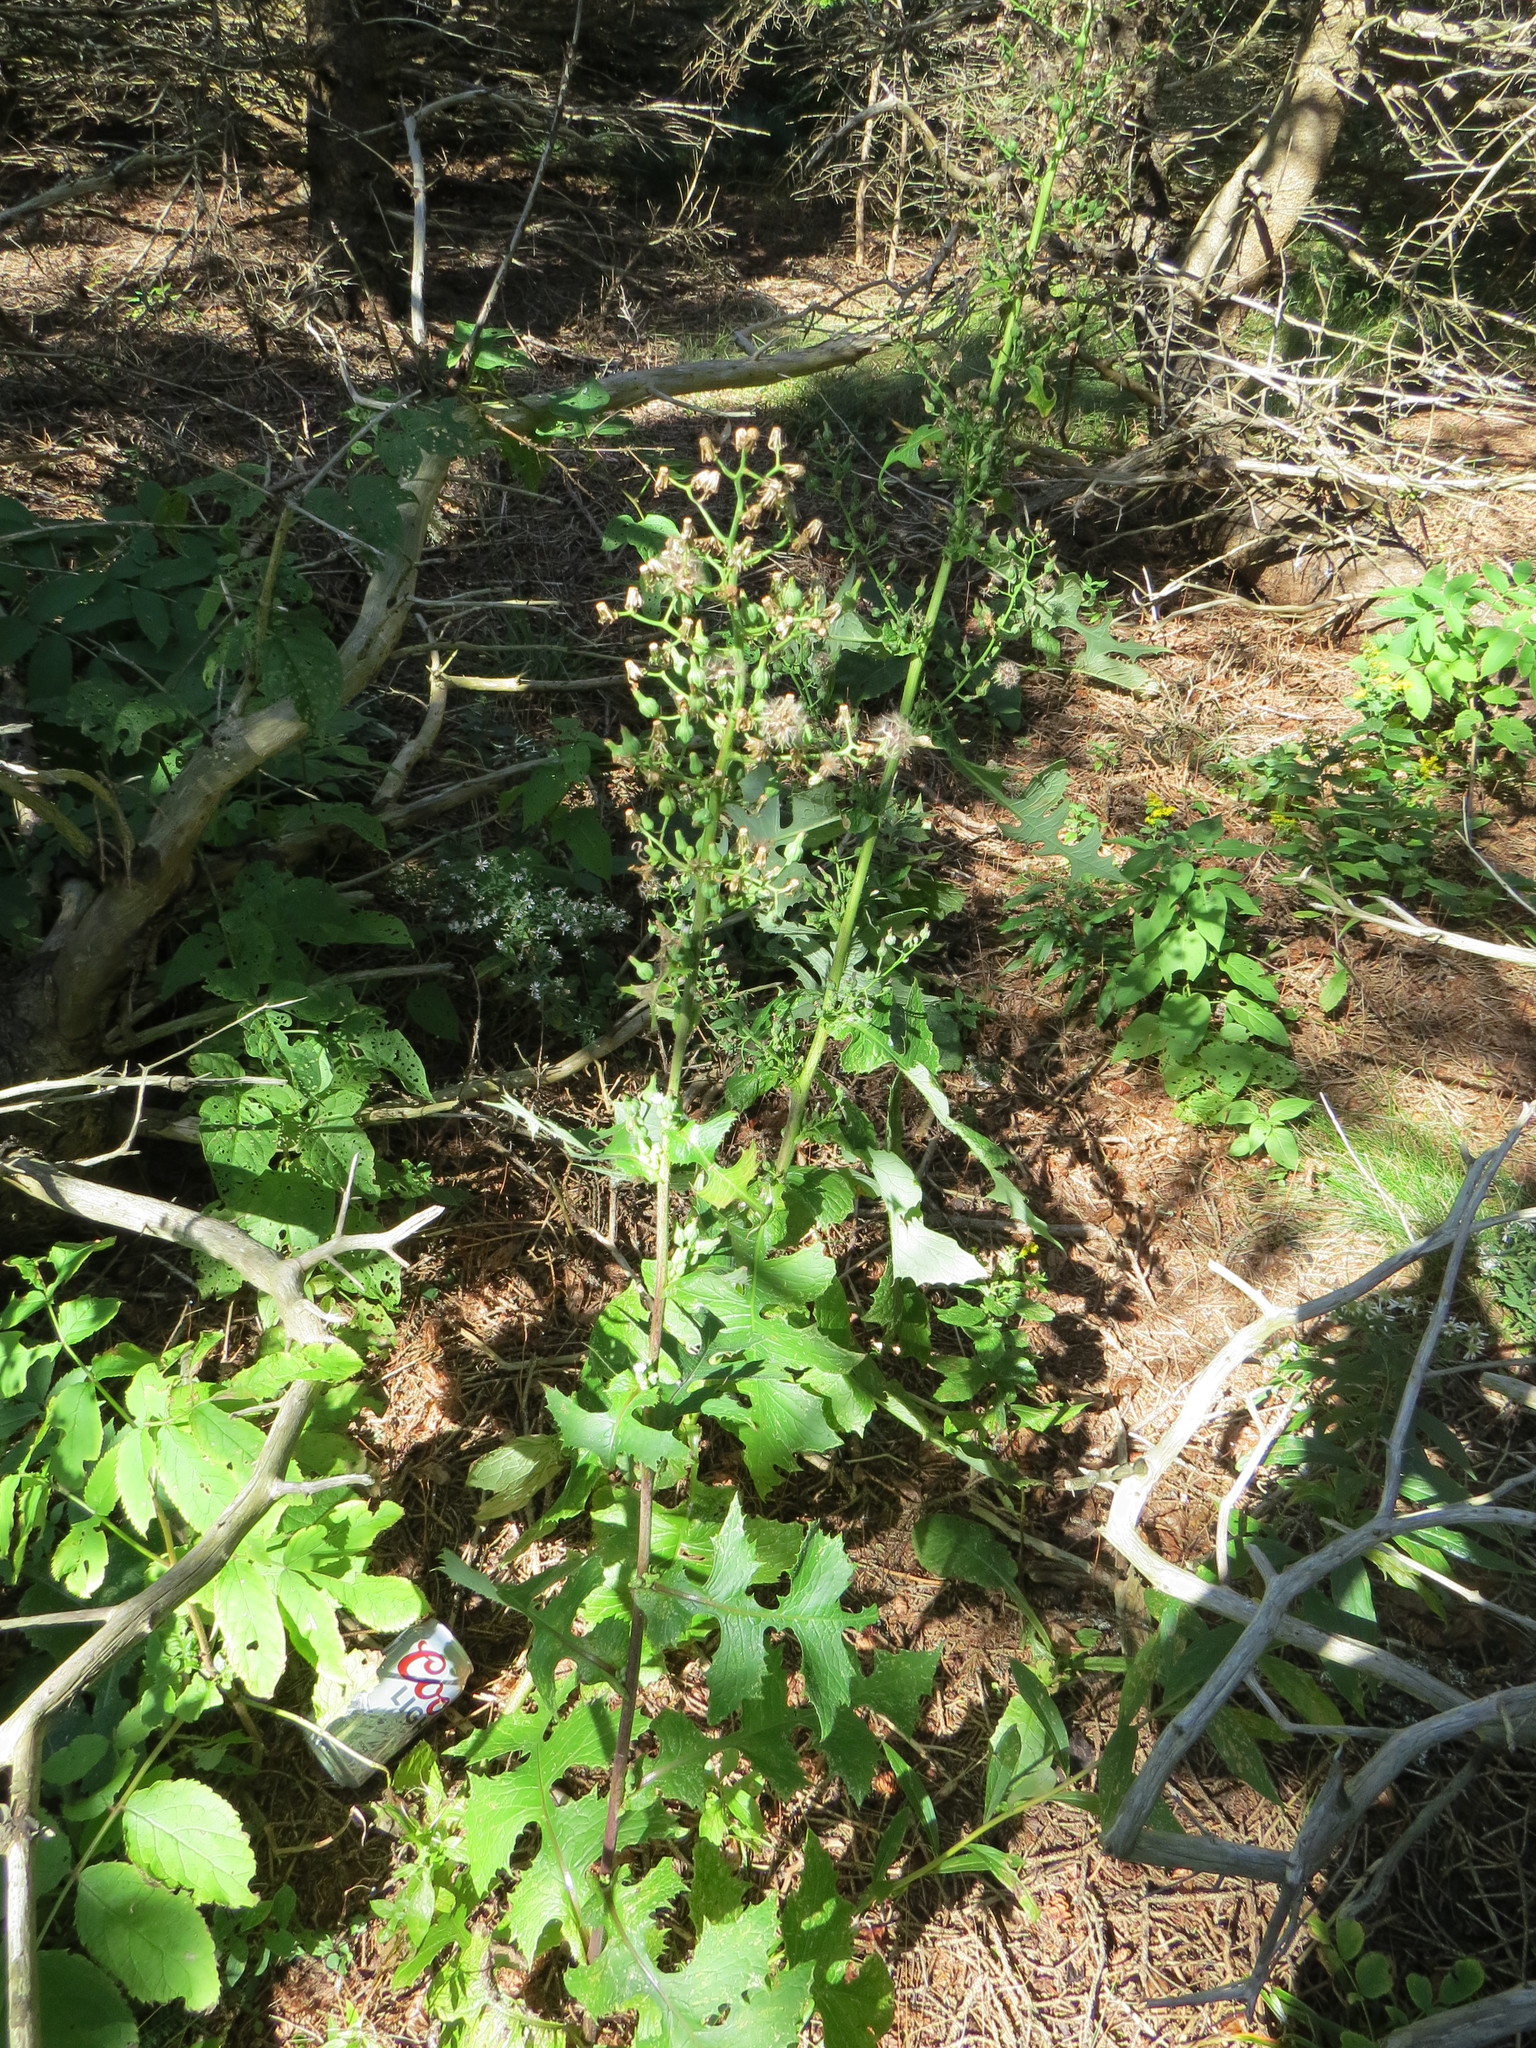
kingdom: Plantae
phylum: Tracheophyta
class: Magnoliopsida
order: Asterales
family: Asteraceae
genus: Lactuca
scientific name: Lactuca biennis
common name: Blue wood lettuce
